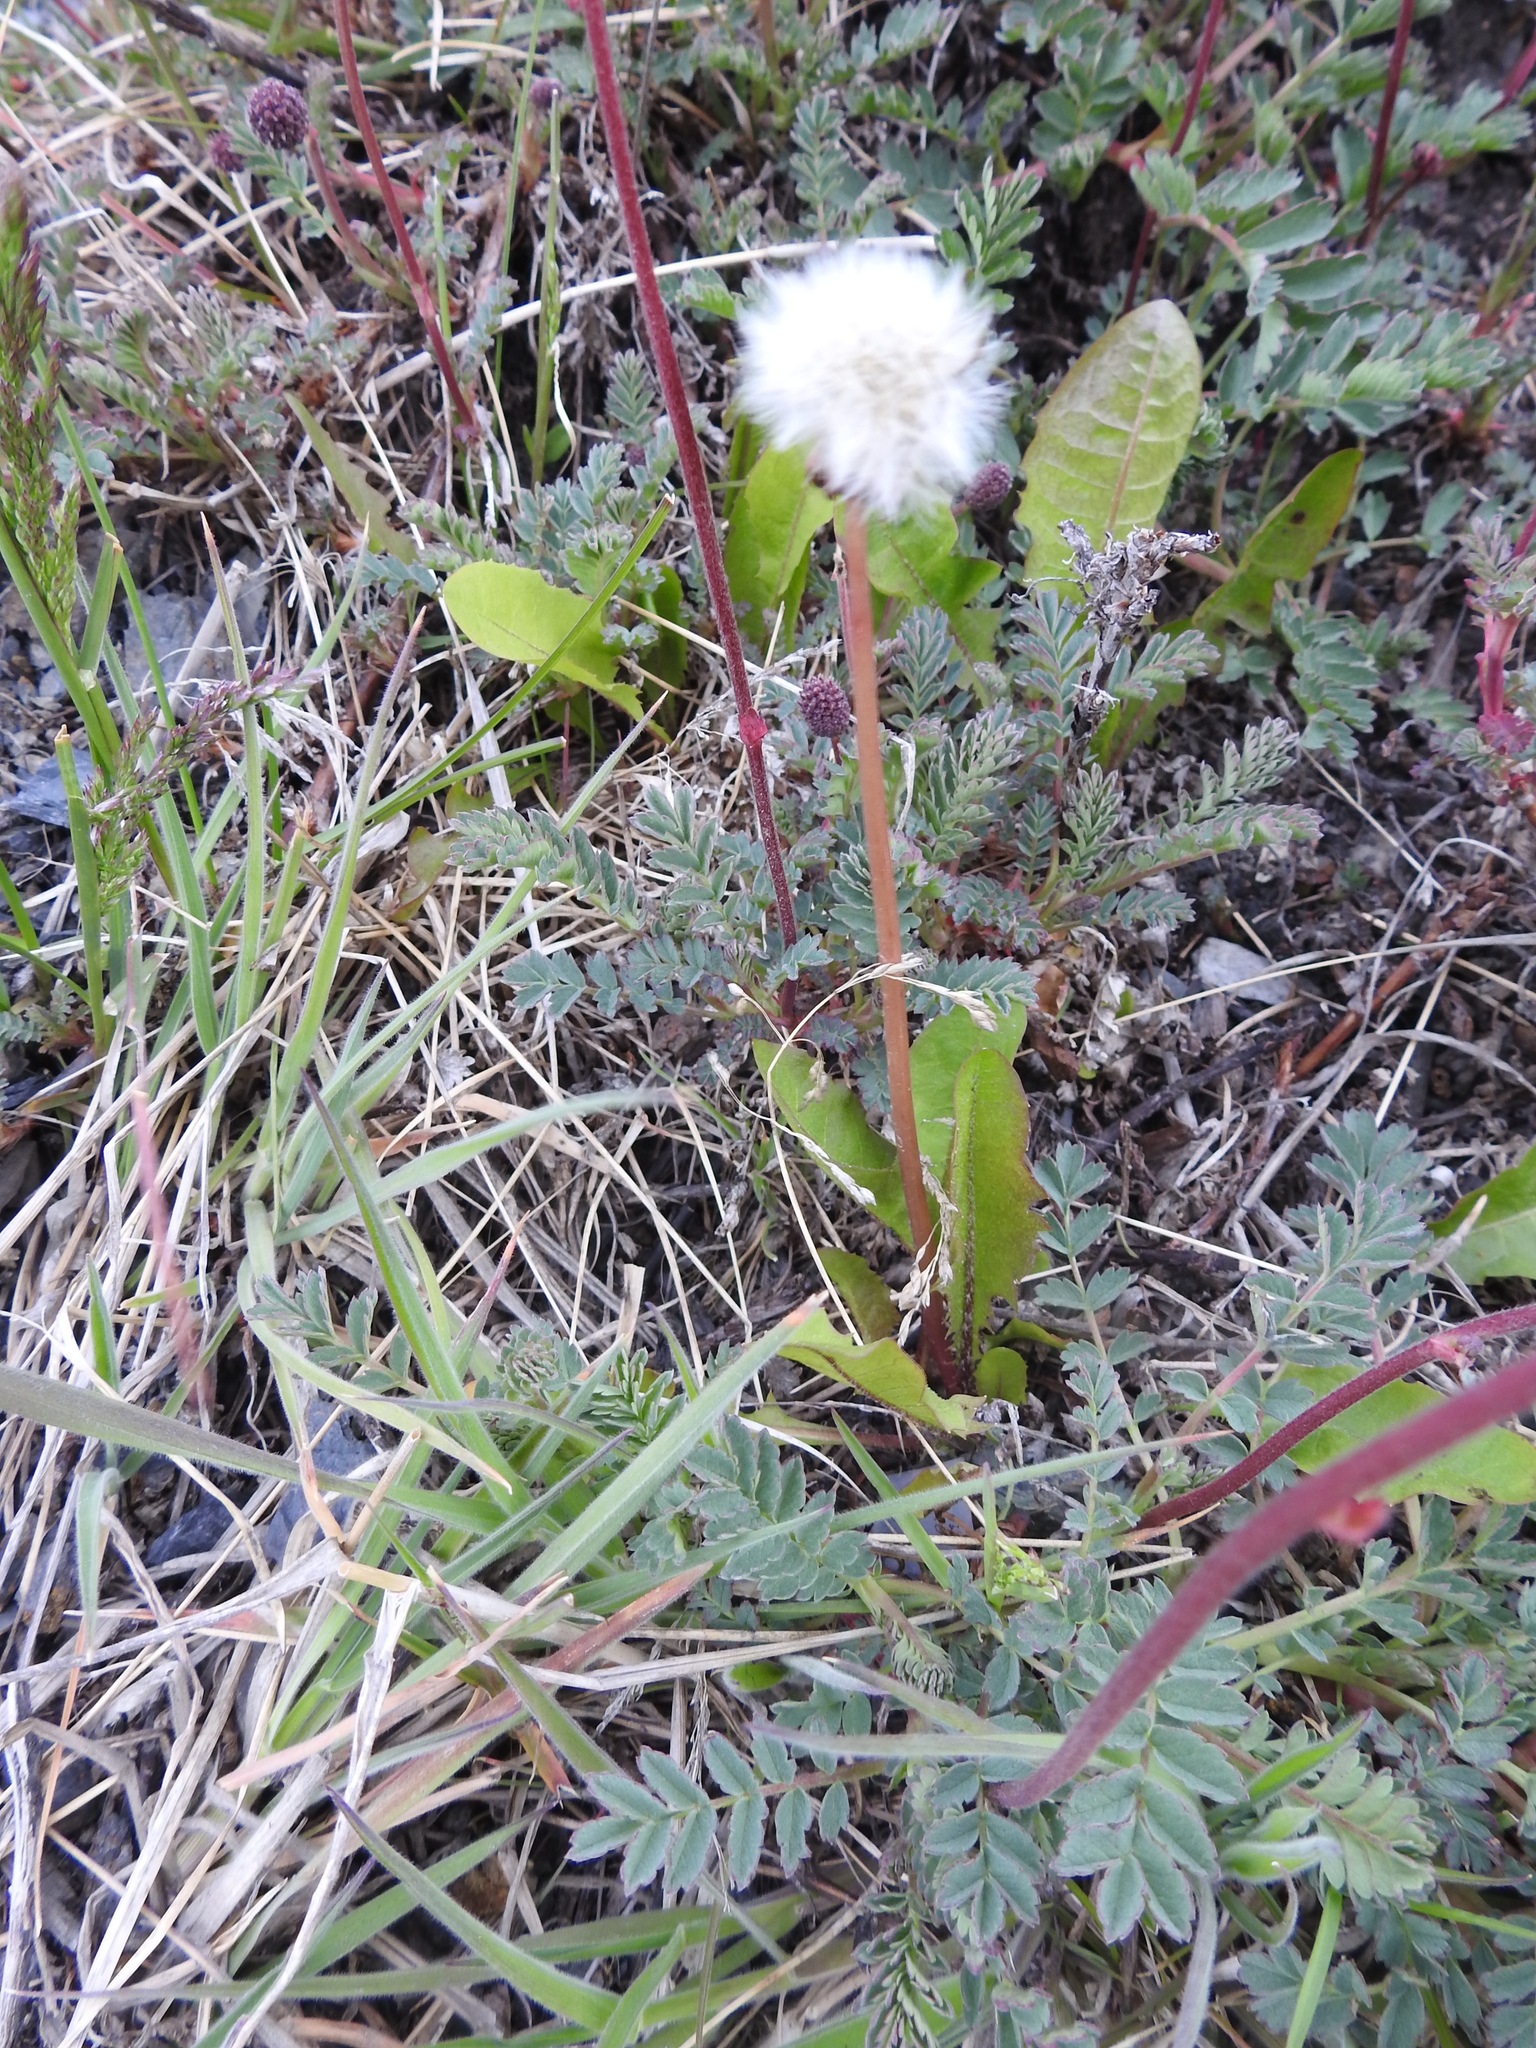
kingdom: Plantae
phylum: Tracheophyta
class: Magnoliopsida
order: Asterales
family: Asteraceae
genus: Taraxacum
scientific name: Taraxacum officinale
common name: Common dandelion
